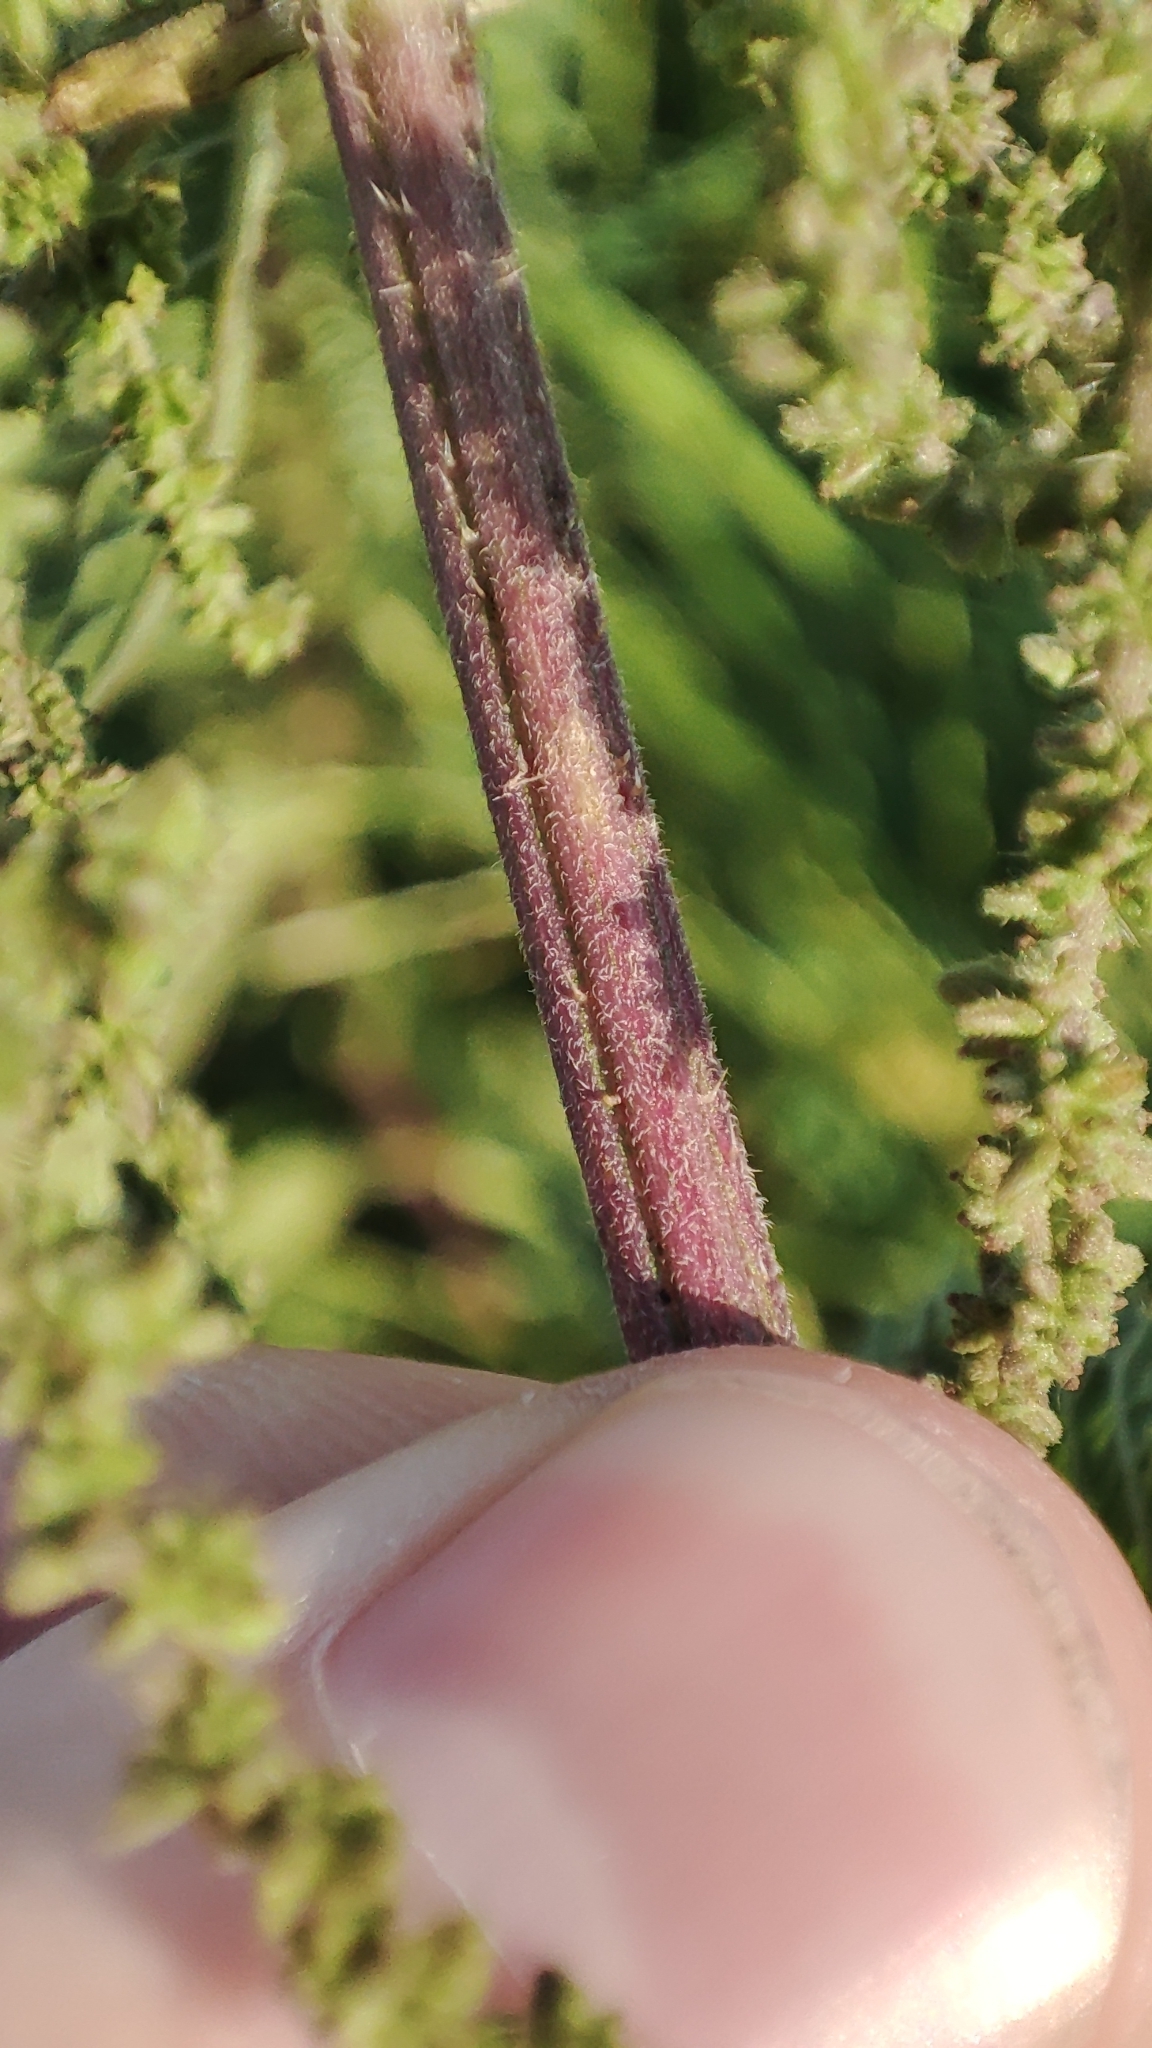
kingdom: Plantae
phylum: Tracheophyta
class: Magnoliopsida
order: Rosales
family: Urticaceae
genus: Urtica
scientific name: Urtica galeopsifolia
